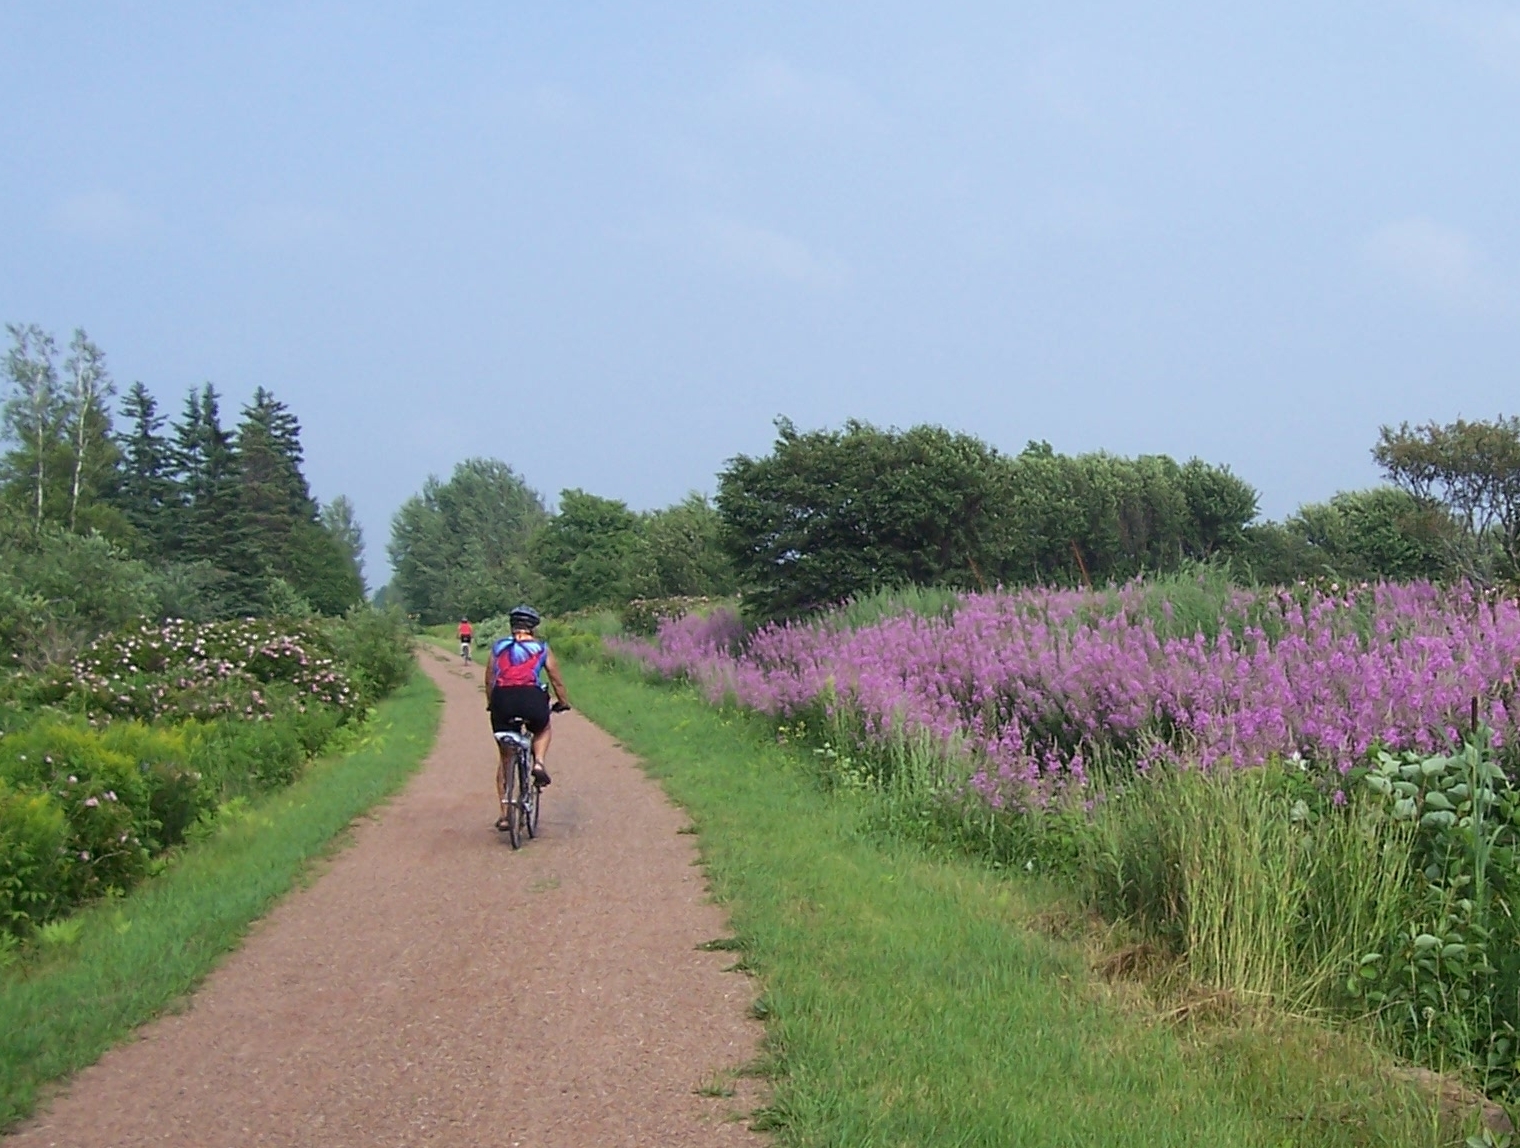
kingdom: Plantae
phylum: Tracheophyta
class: Magnoliopsida
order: Myrtales
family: Onagraceae
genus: Chamaenerion
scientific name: Chamaenerion angustifolium
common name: Fireweed
